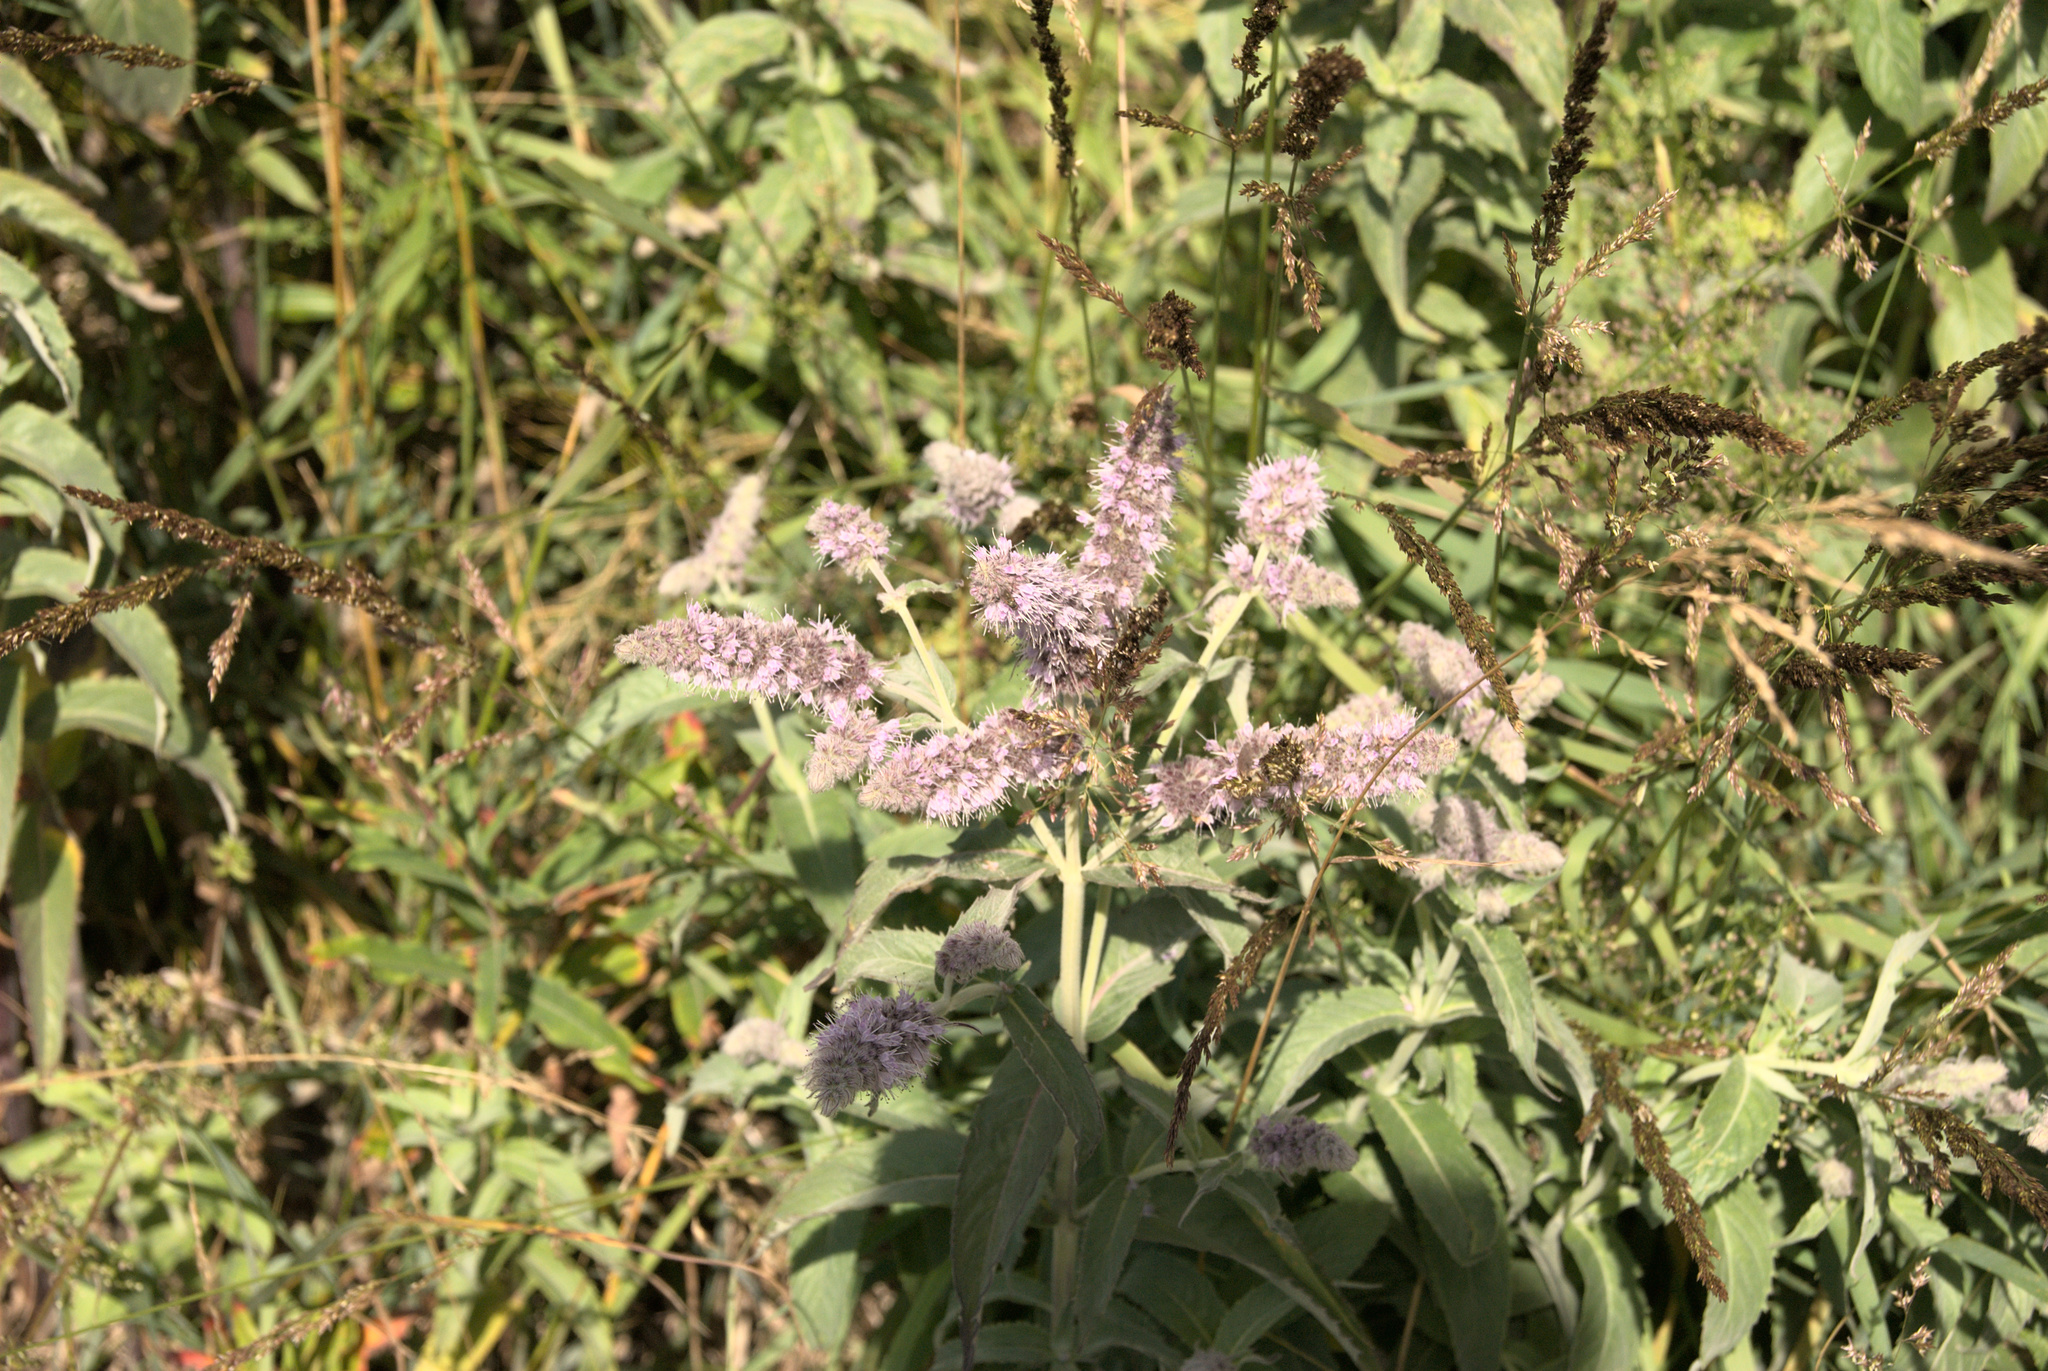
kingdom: Plantae
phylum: Tracheophyta
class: Magnoliopsida
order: Lamiales
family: Lamiaceae
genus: Mentha
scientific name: Mentha longifolia
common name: Horse mint
